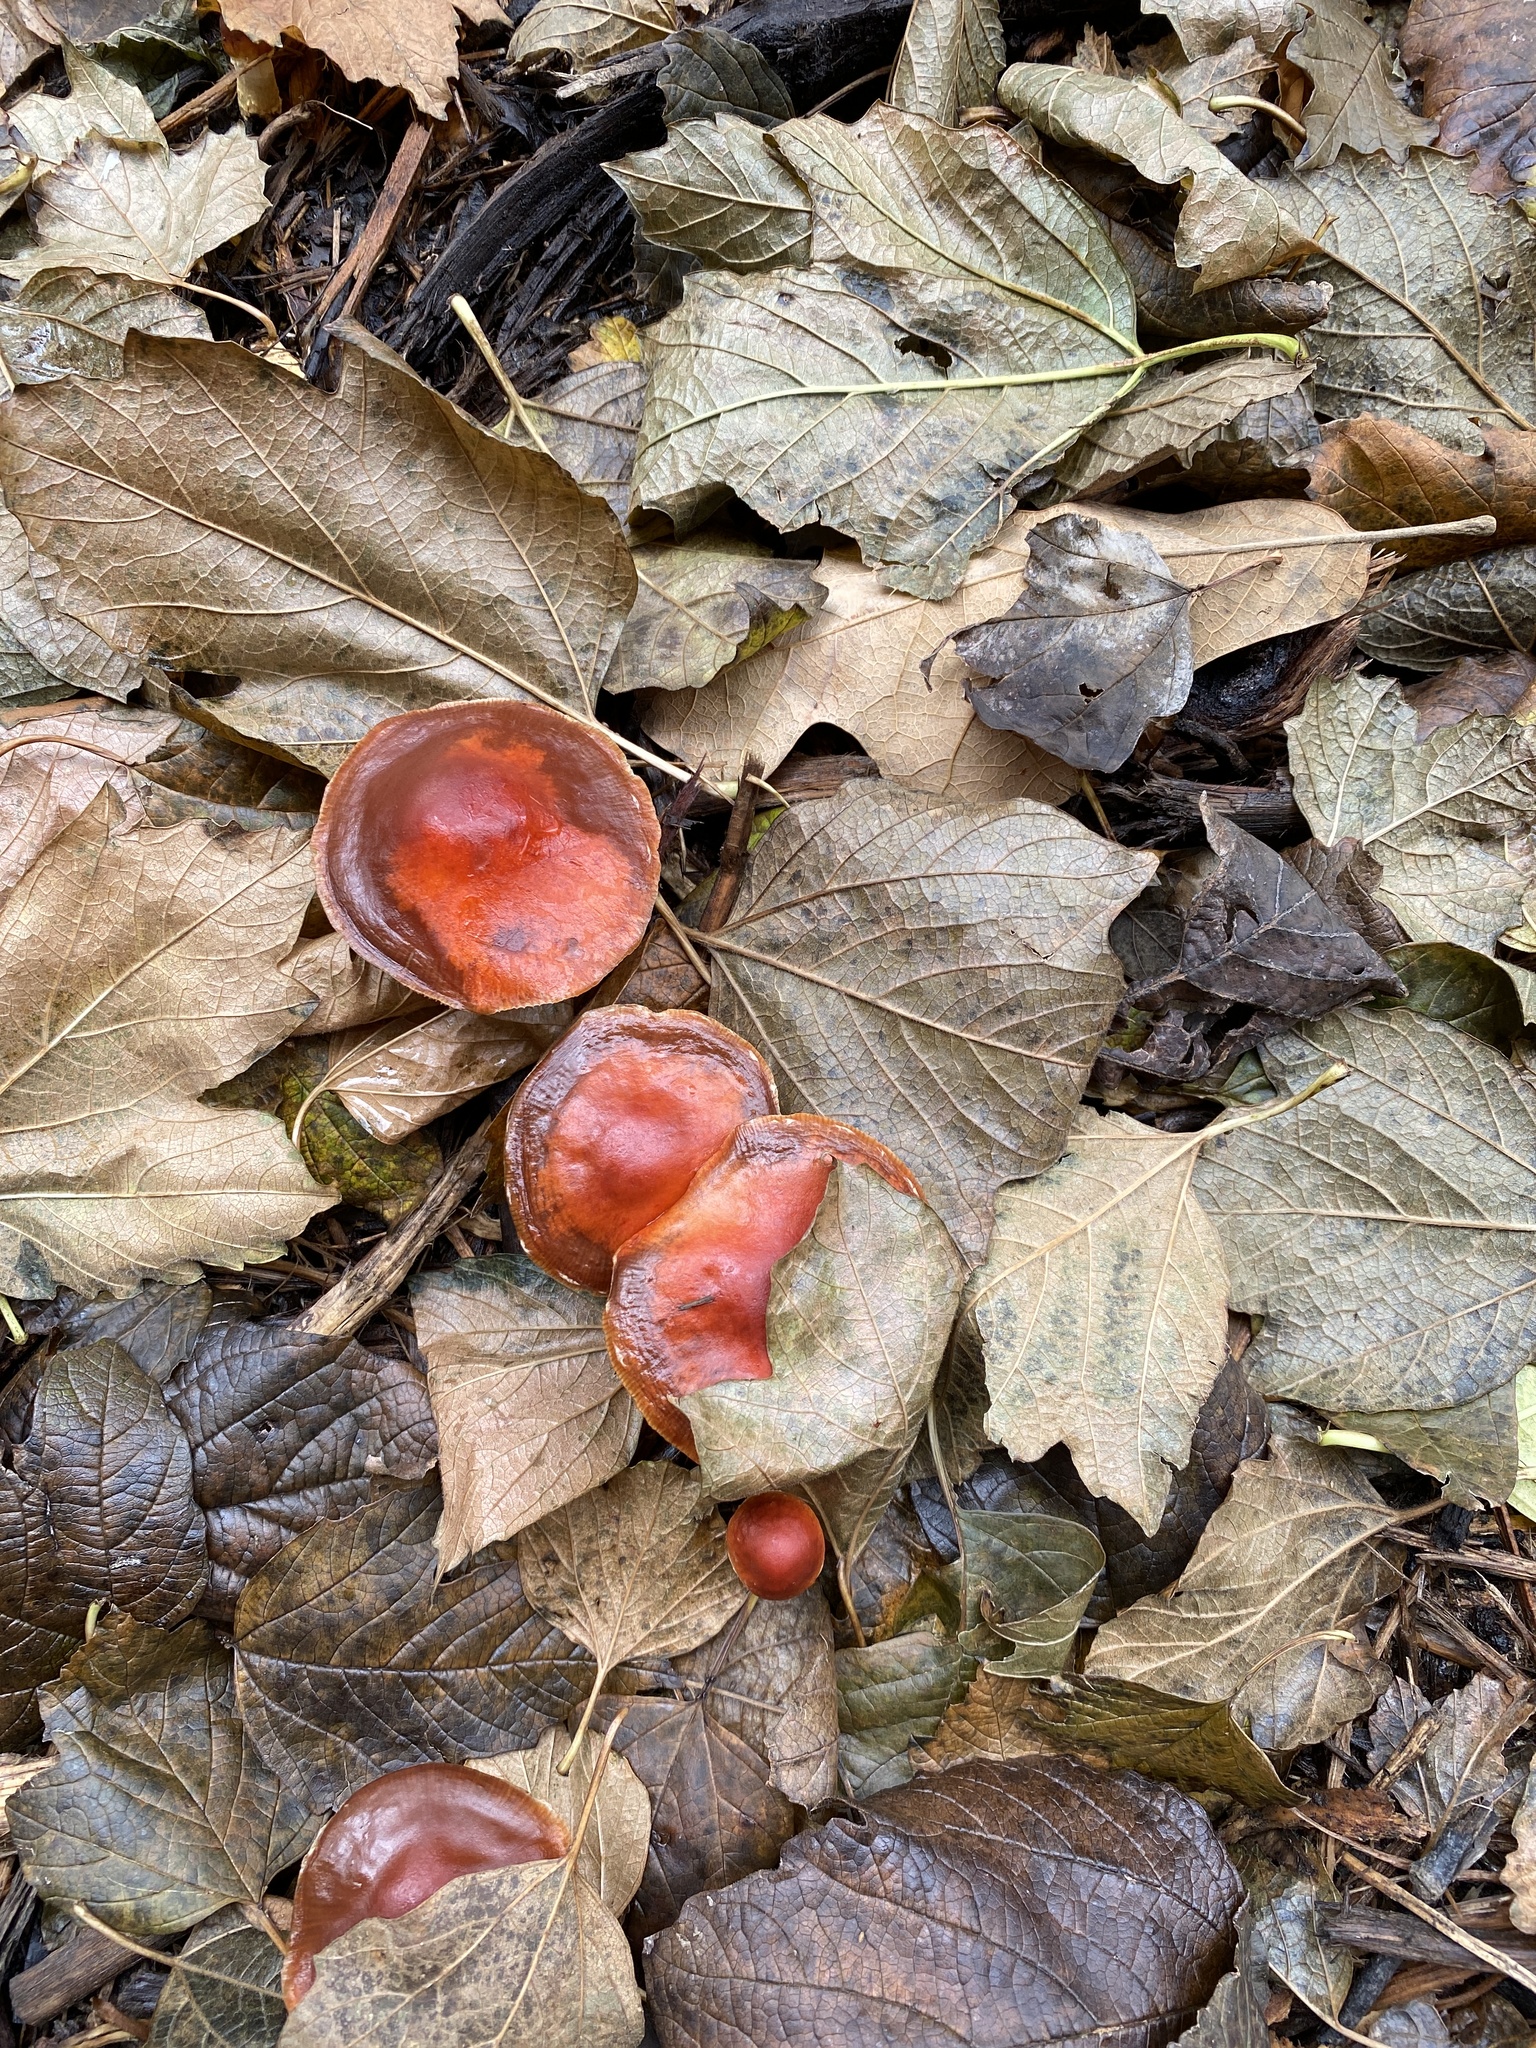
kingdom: Fungi
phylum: Basidiomycota
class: Agaricomycetes
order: Agaricales
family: Strophariaceae
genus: Leratiomyces
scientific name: Leratiomyces ceres
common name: Redlead roundhead
